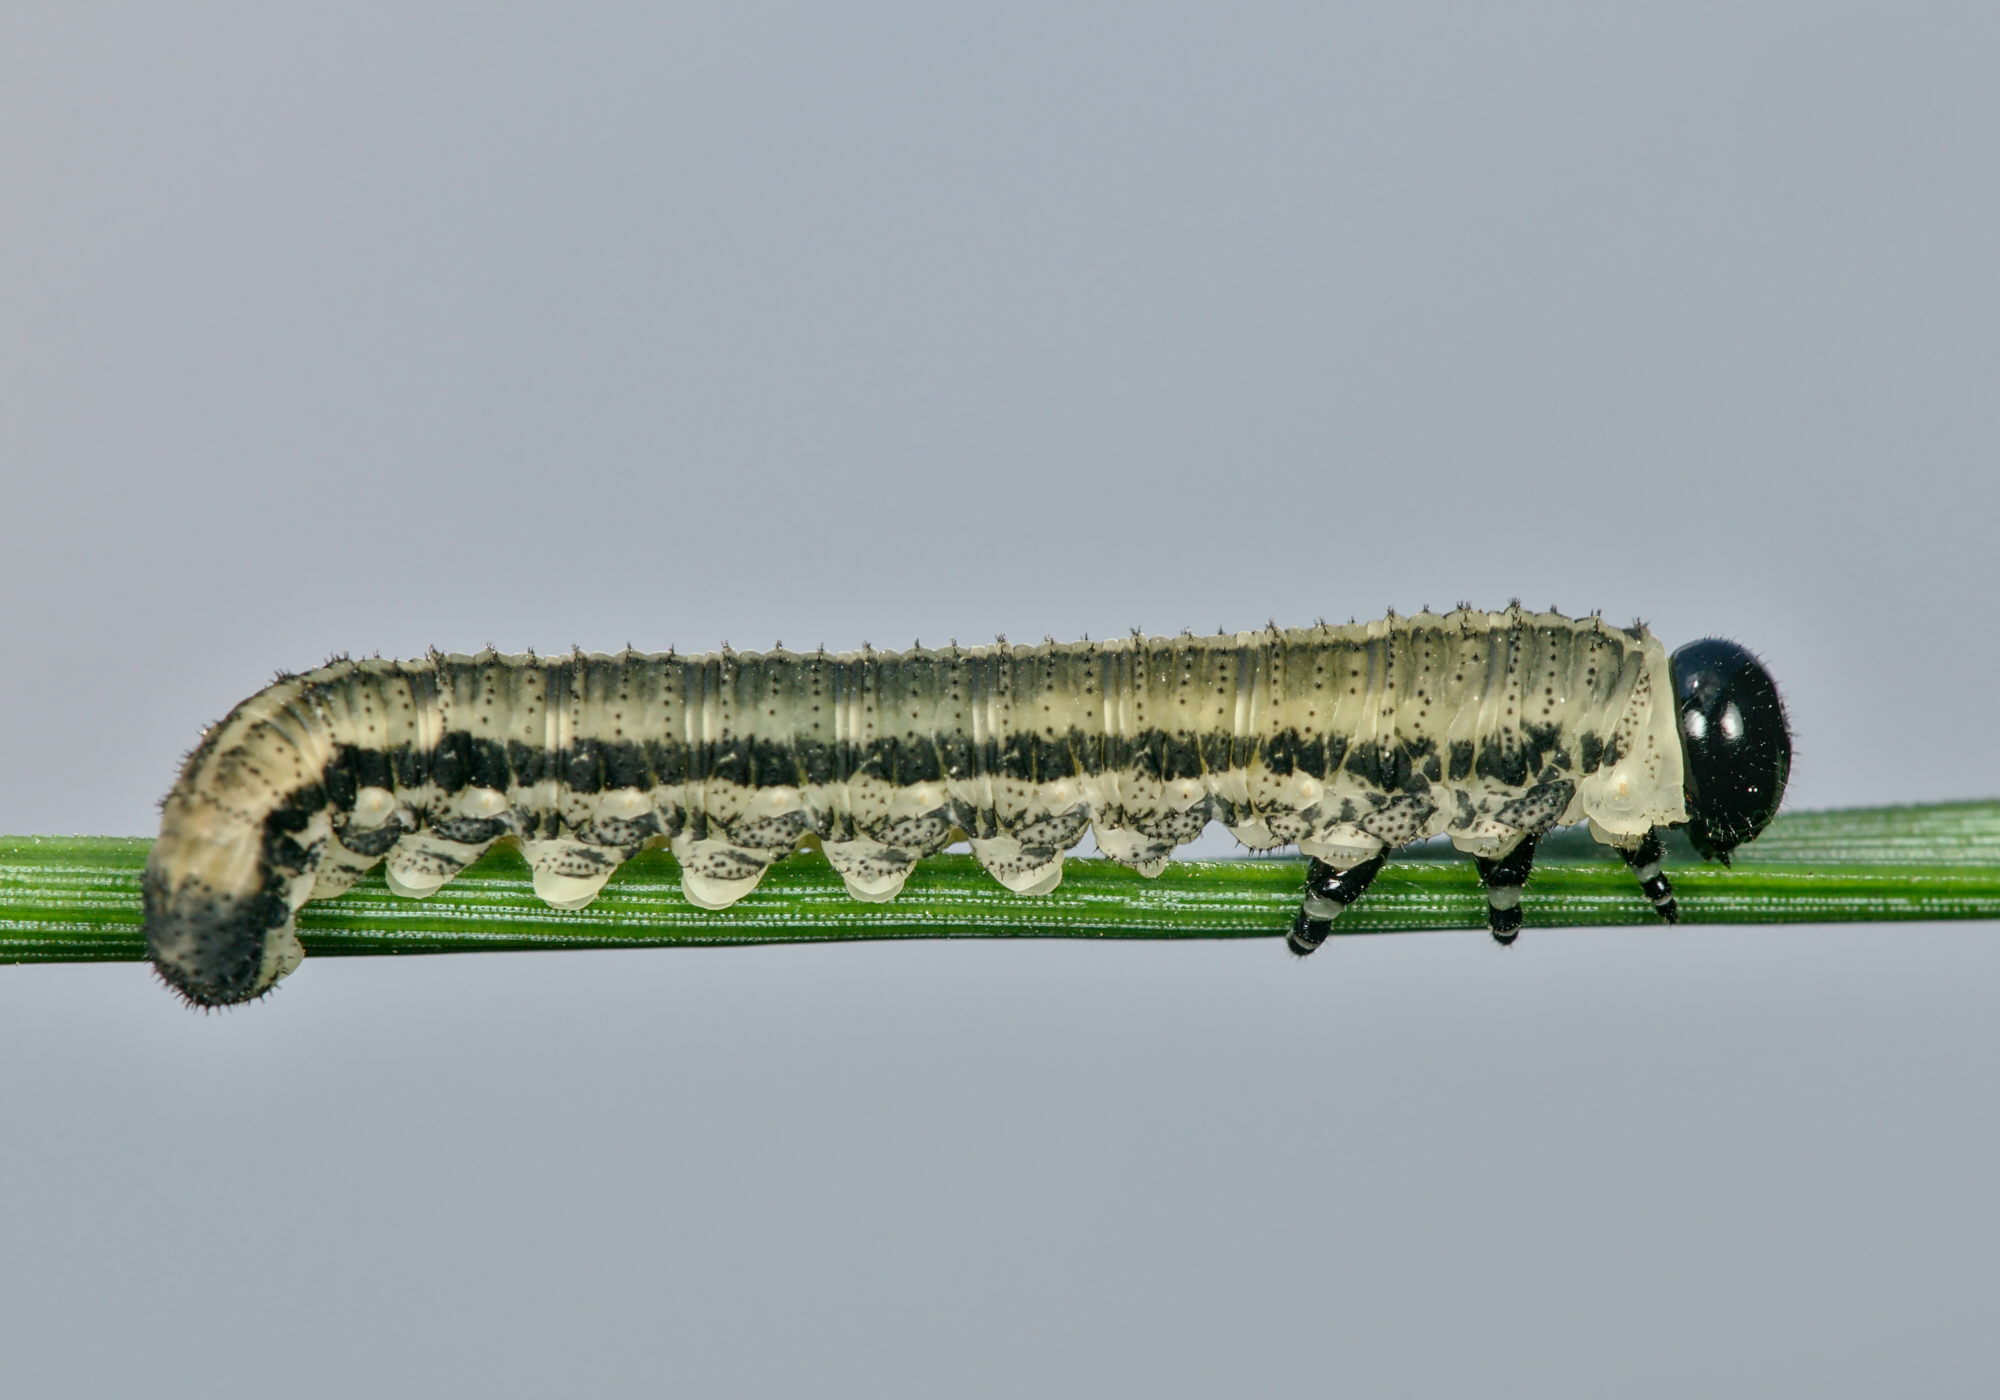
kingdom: Animalia
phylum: Arthropoda
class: Insecta
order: Hymenoptera
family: Diprionidae
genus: Neodiprion
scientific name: Neodiprion sertifer
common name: European pine sawfly
